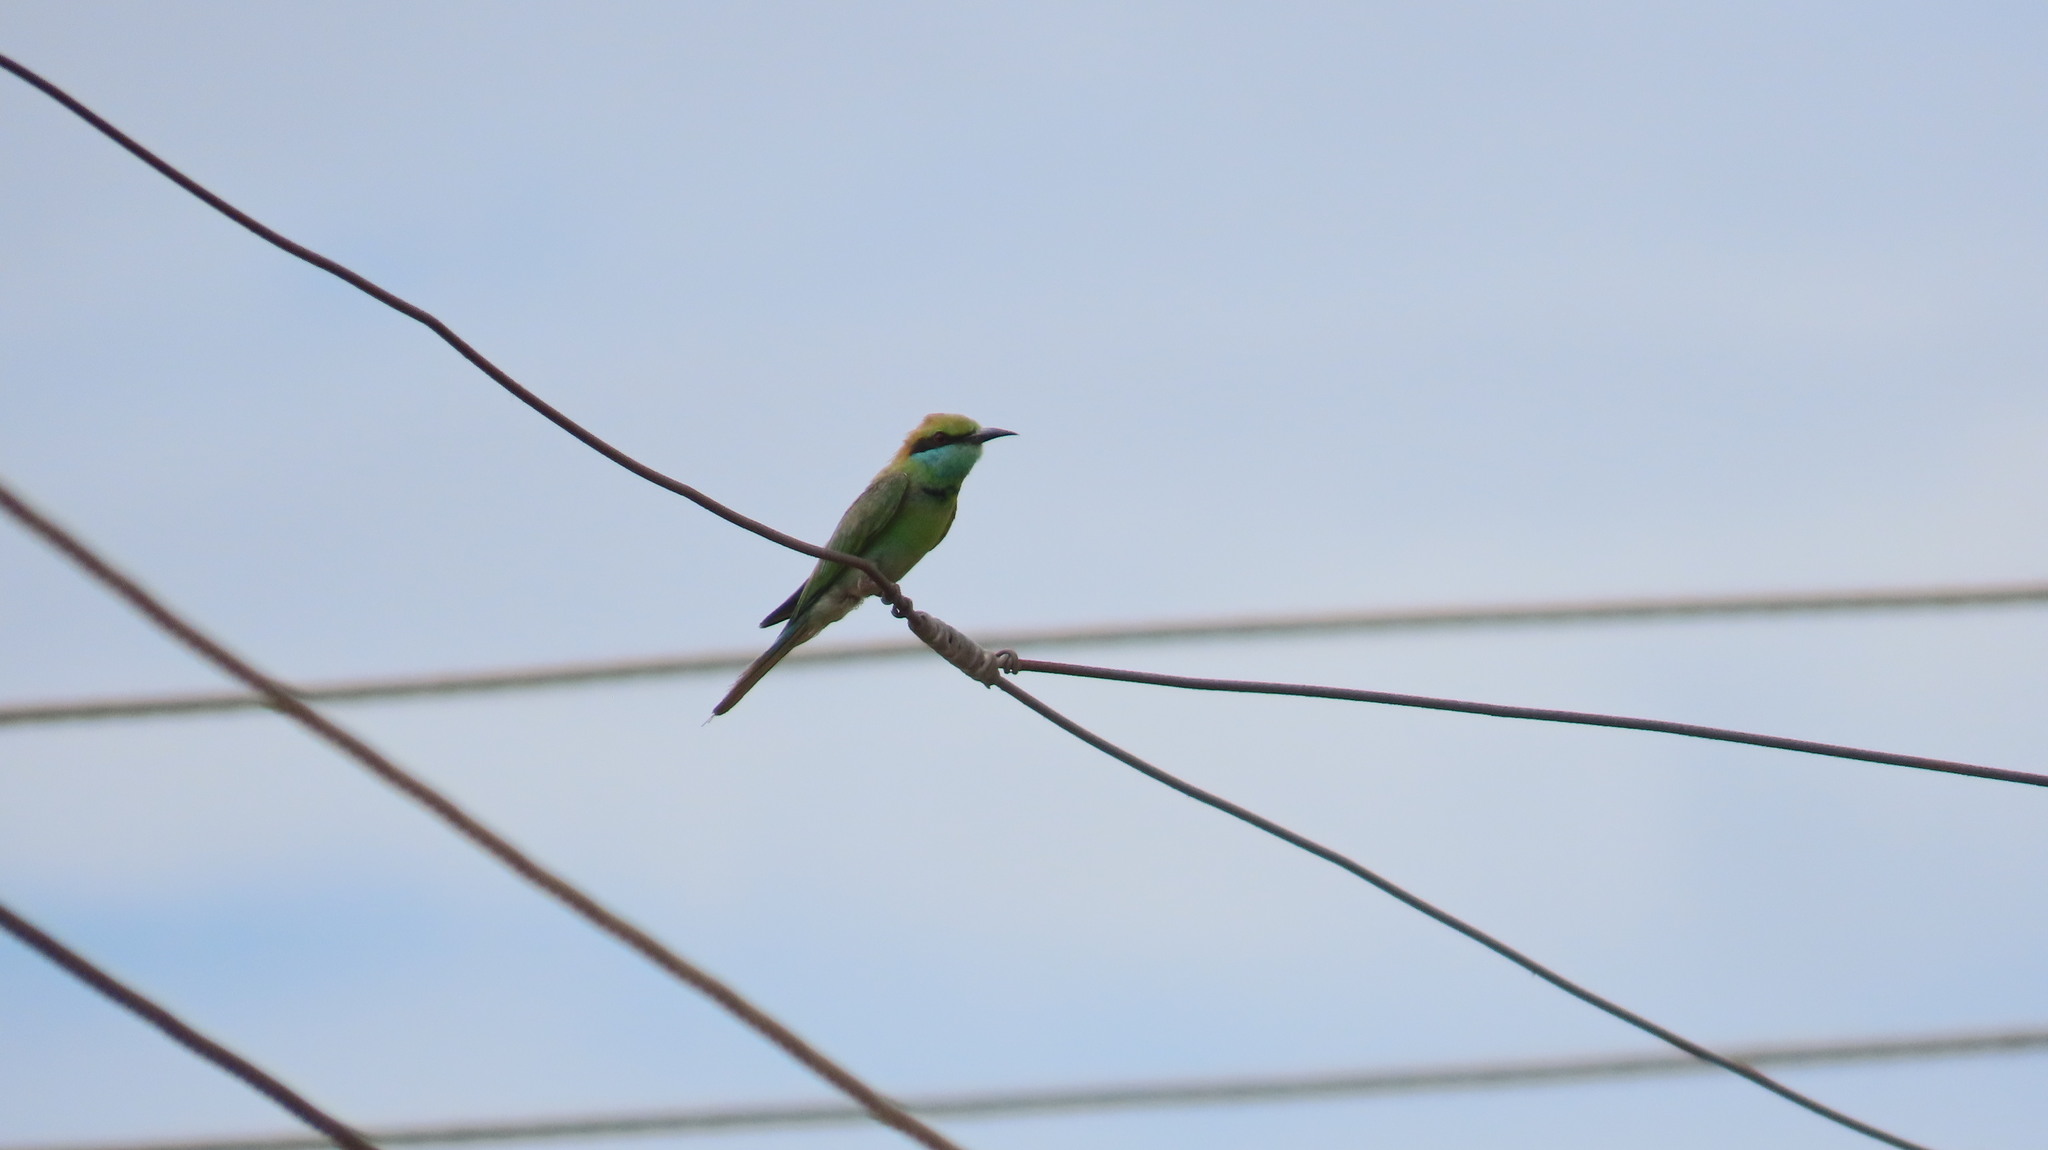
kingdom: Animalia
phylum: Chordata
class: Aves
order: Coraciiformes
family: Meropidae
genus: Merops
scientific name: Merops orientalis
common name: Green bee-eater
